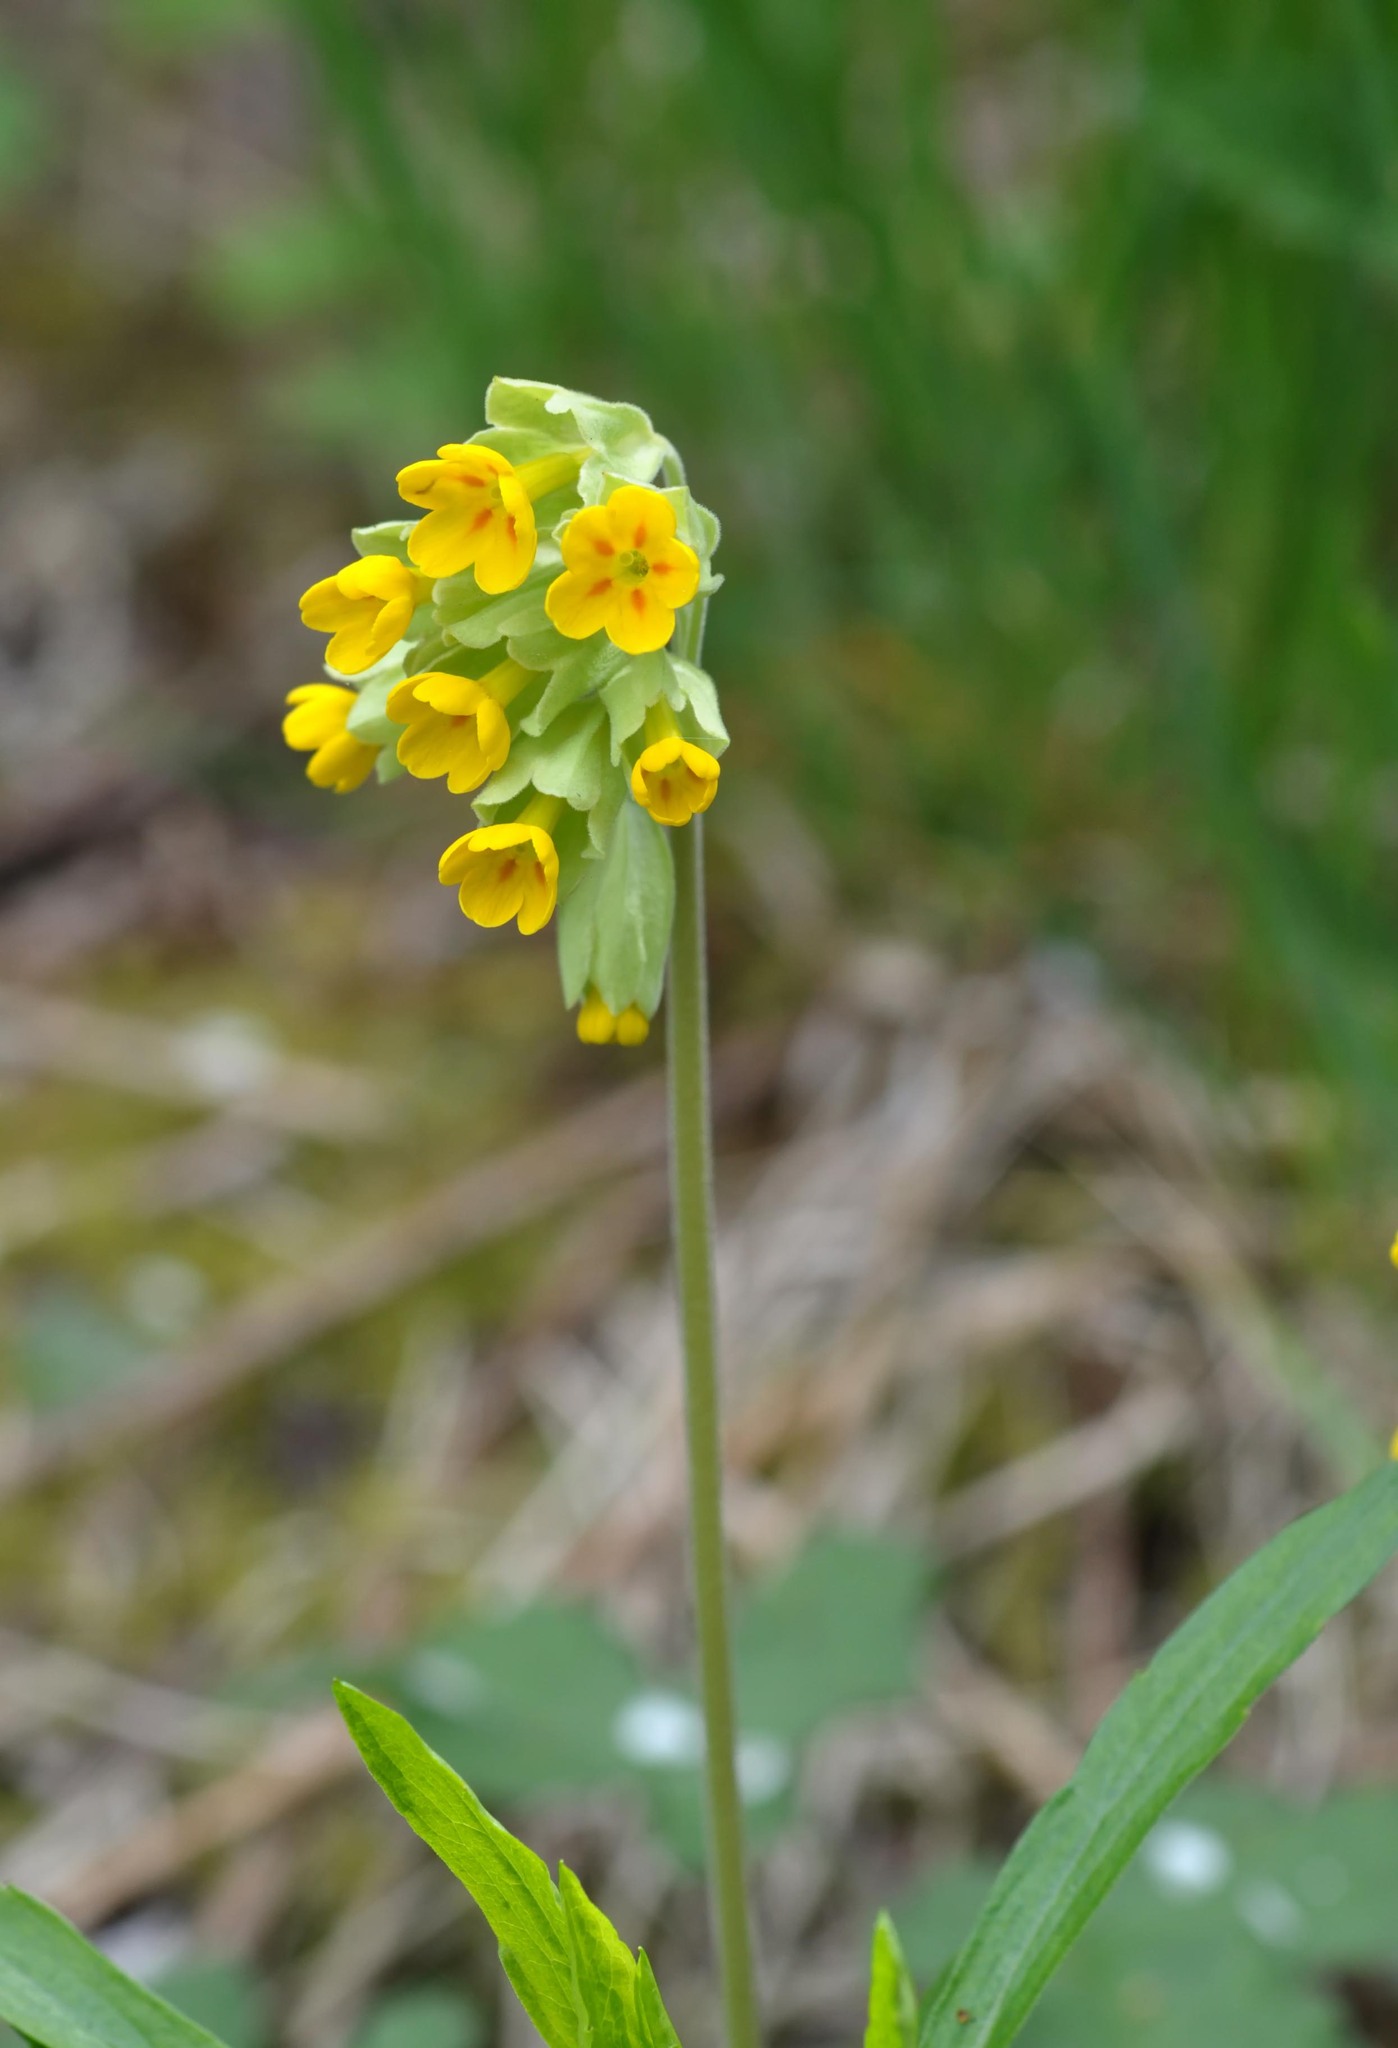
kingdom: Plantae
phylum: Tracheophyta
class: Magnoliopsida
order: Ericales
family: Primulaceae
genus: Primula
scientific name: Primula veris
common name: Cowslip
